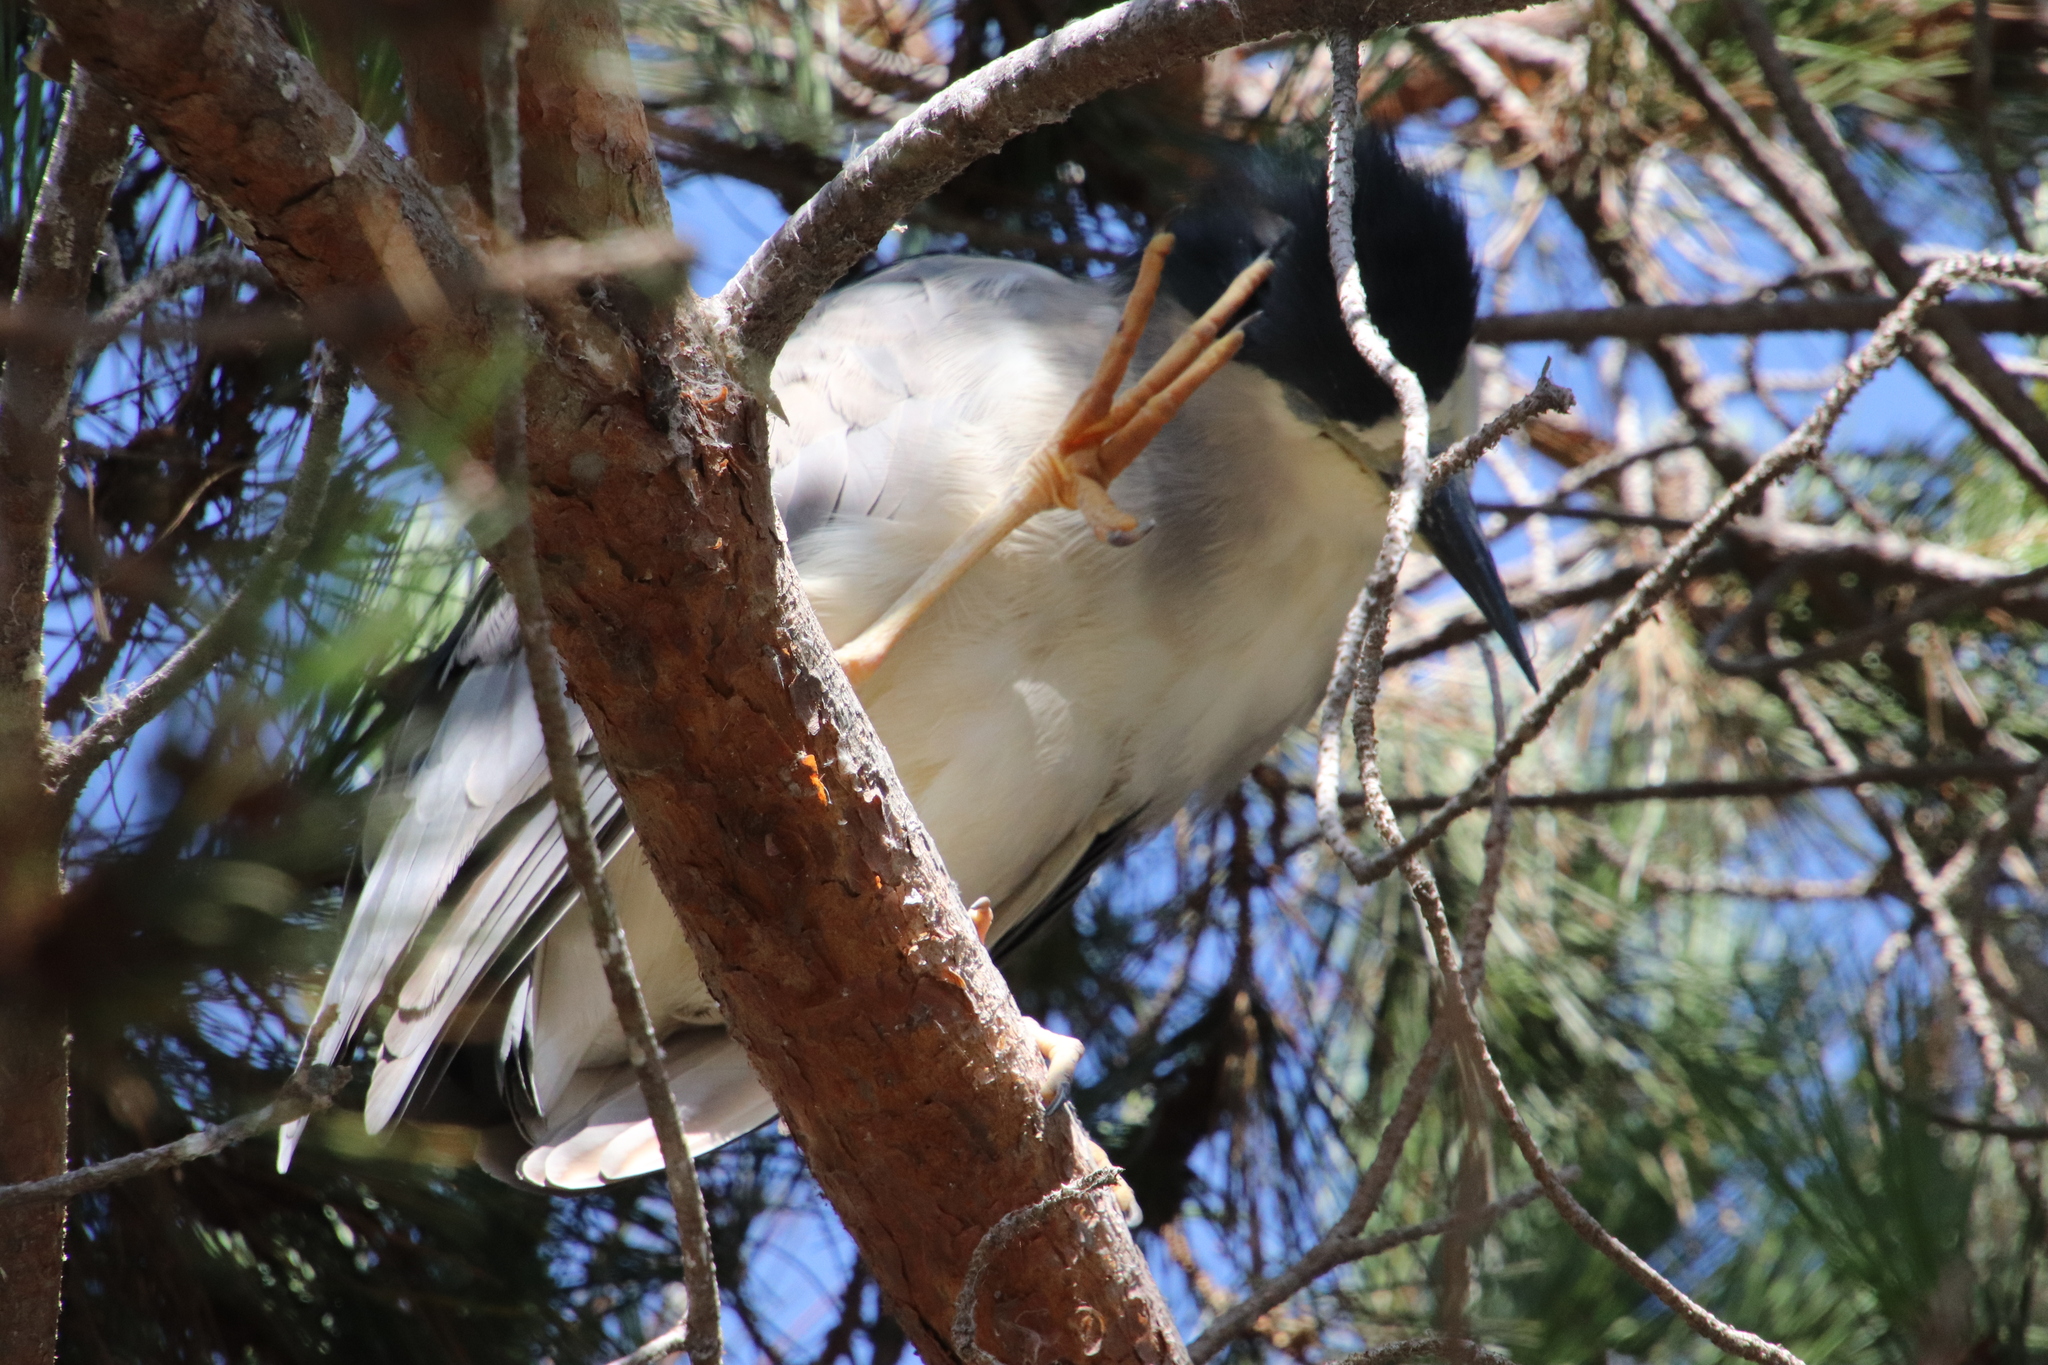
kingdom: Animalia
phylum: Chordata
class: Aves
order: Pelecaniformes
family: Ardeidae
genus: Nycticorax
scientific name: Nycticorax nycticorax
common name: Black-crowned night heron
